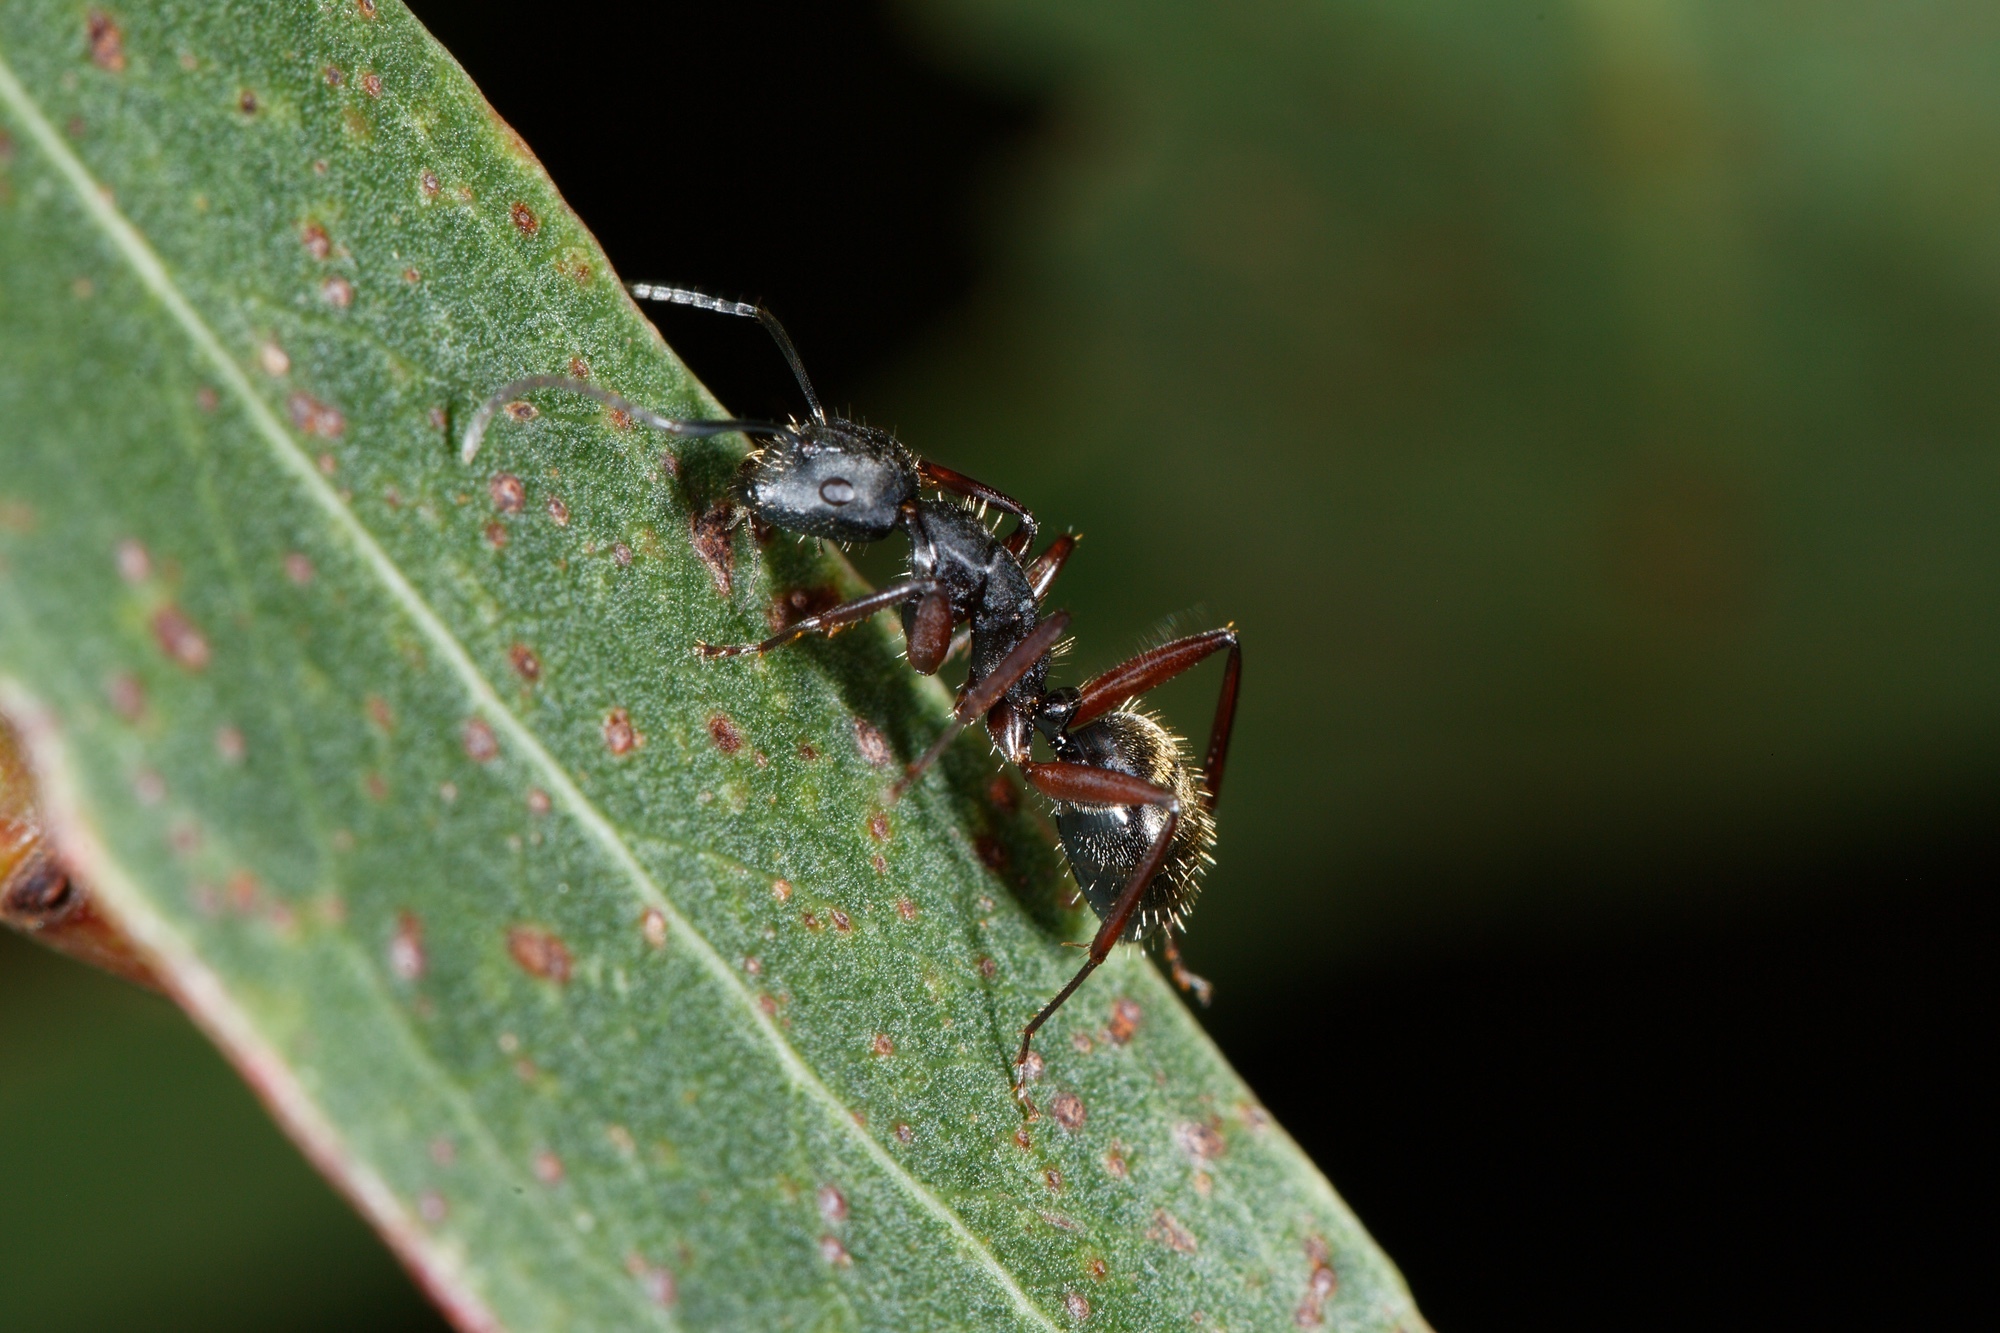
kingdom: Animalia
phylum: Arthropoda
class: Insecta
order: Hymenoptera
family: Formicidae
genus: Camponotus
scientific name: Camponotus oxleyi
